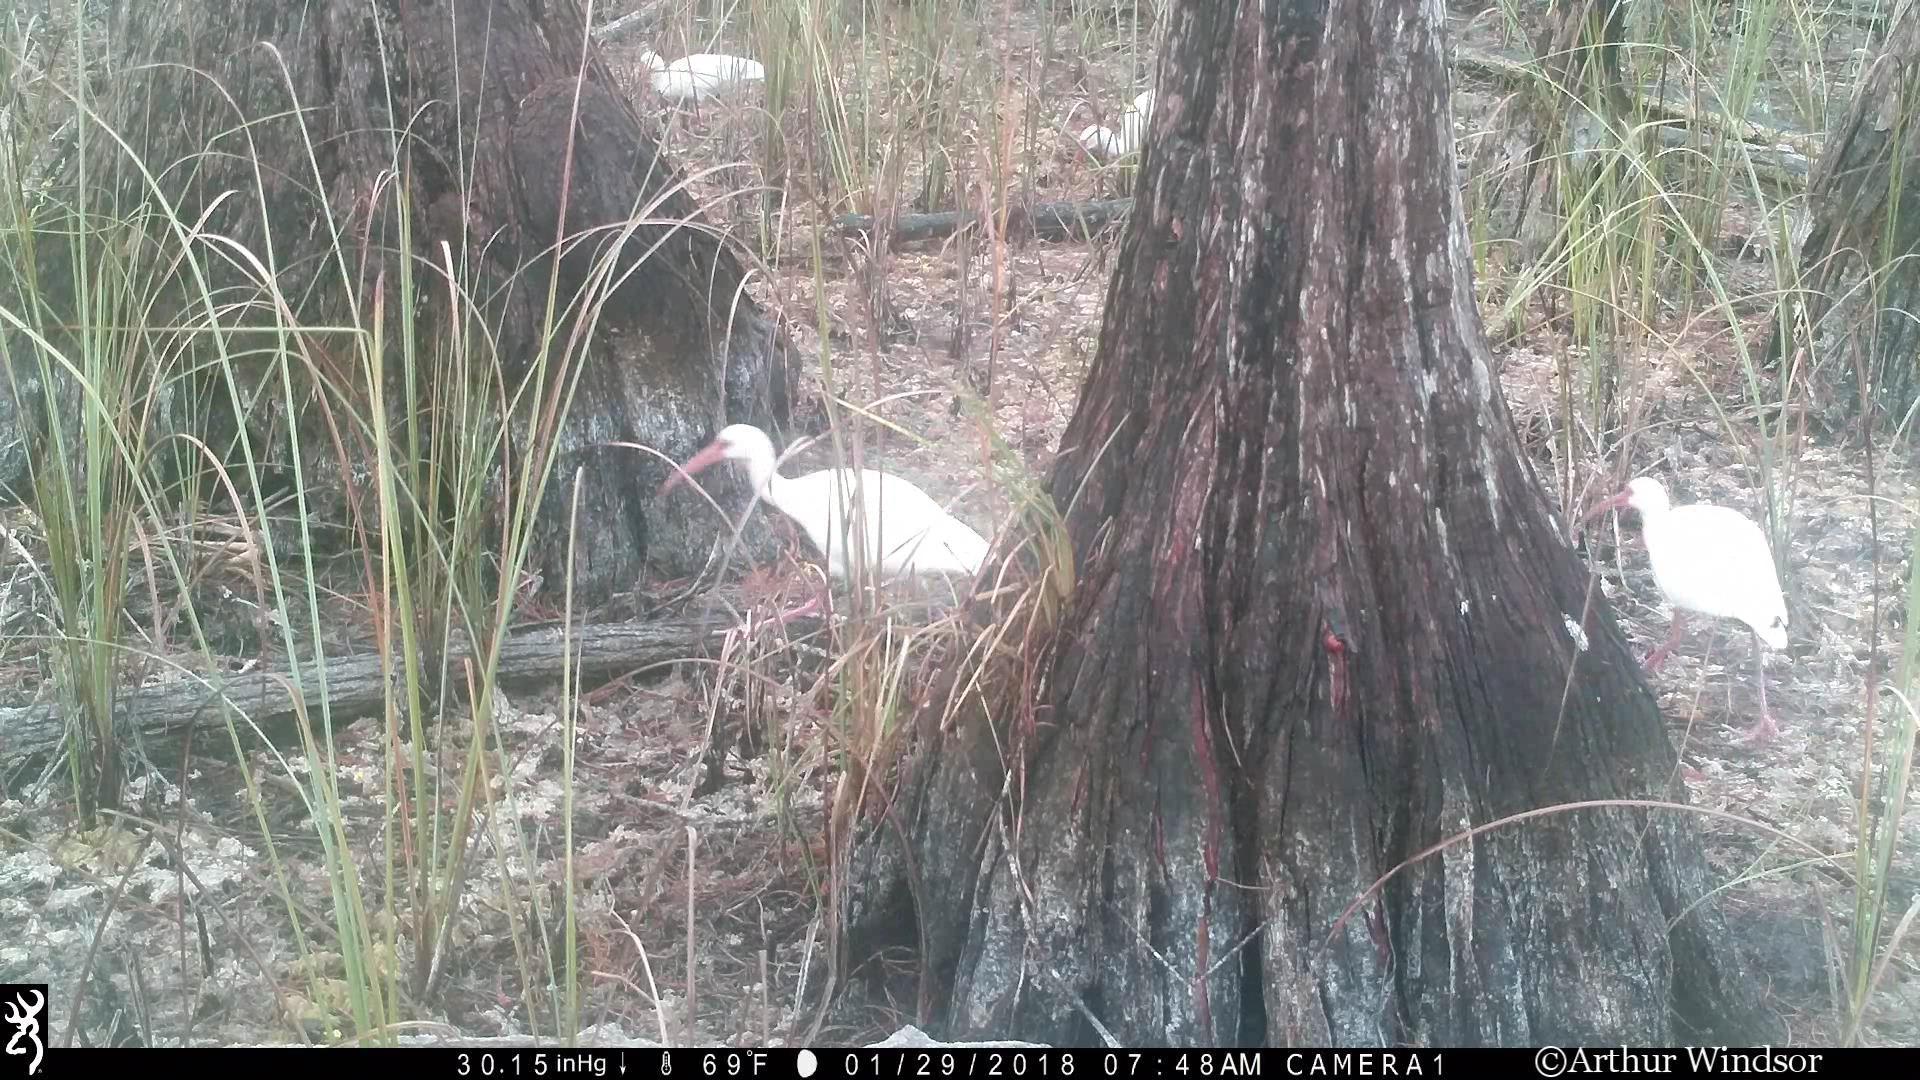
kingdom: Animalia
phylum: Chordata
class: Aves
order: Pelecaniformes
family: Threskiornithidae
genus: Eudocimus
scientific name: Eudocimus albus
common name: White ibis
